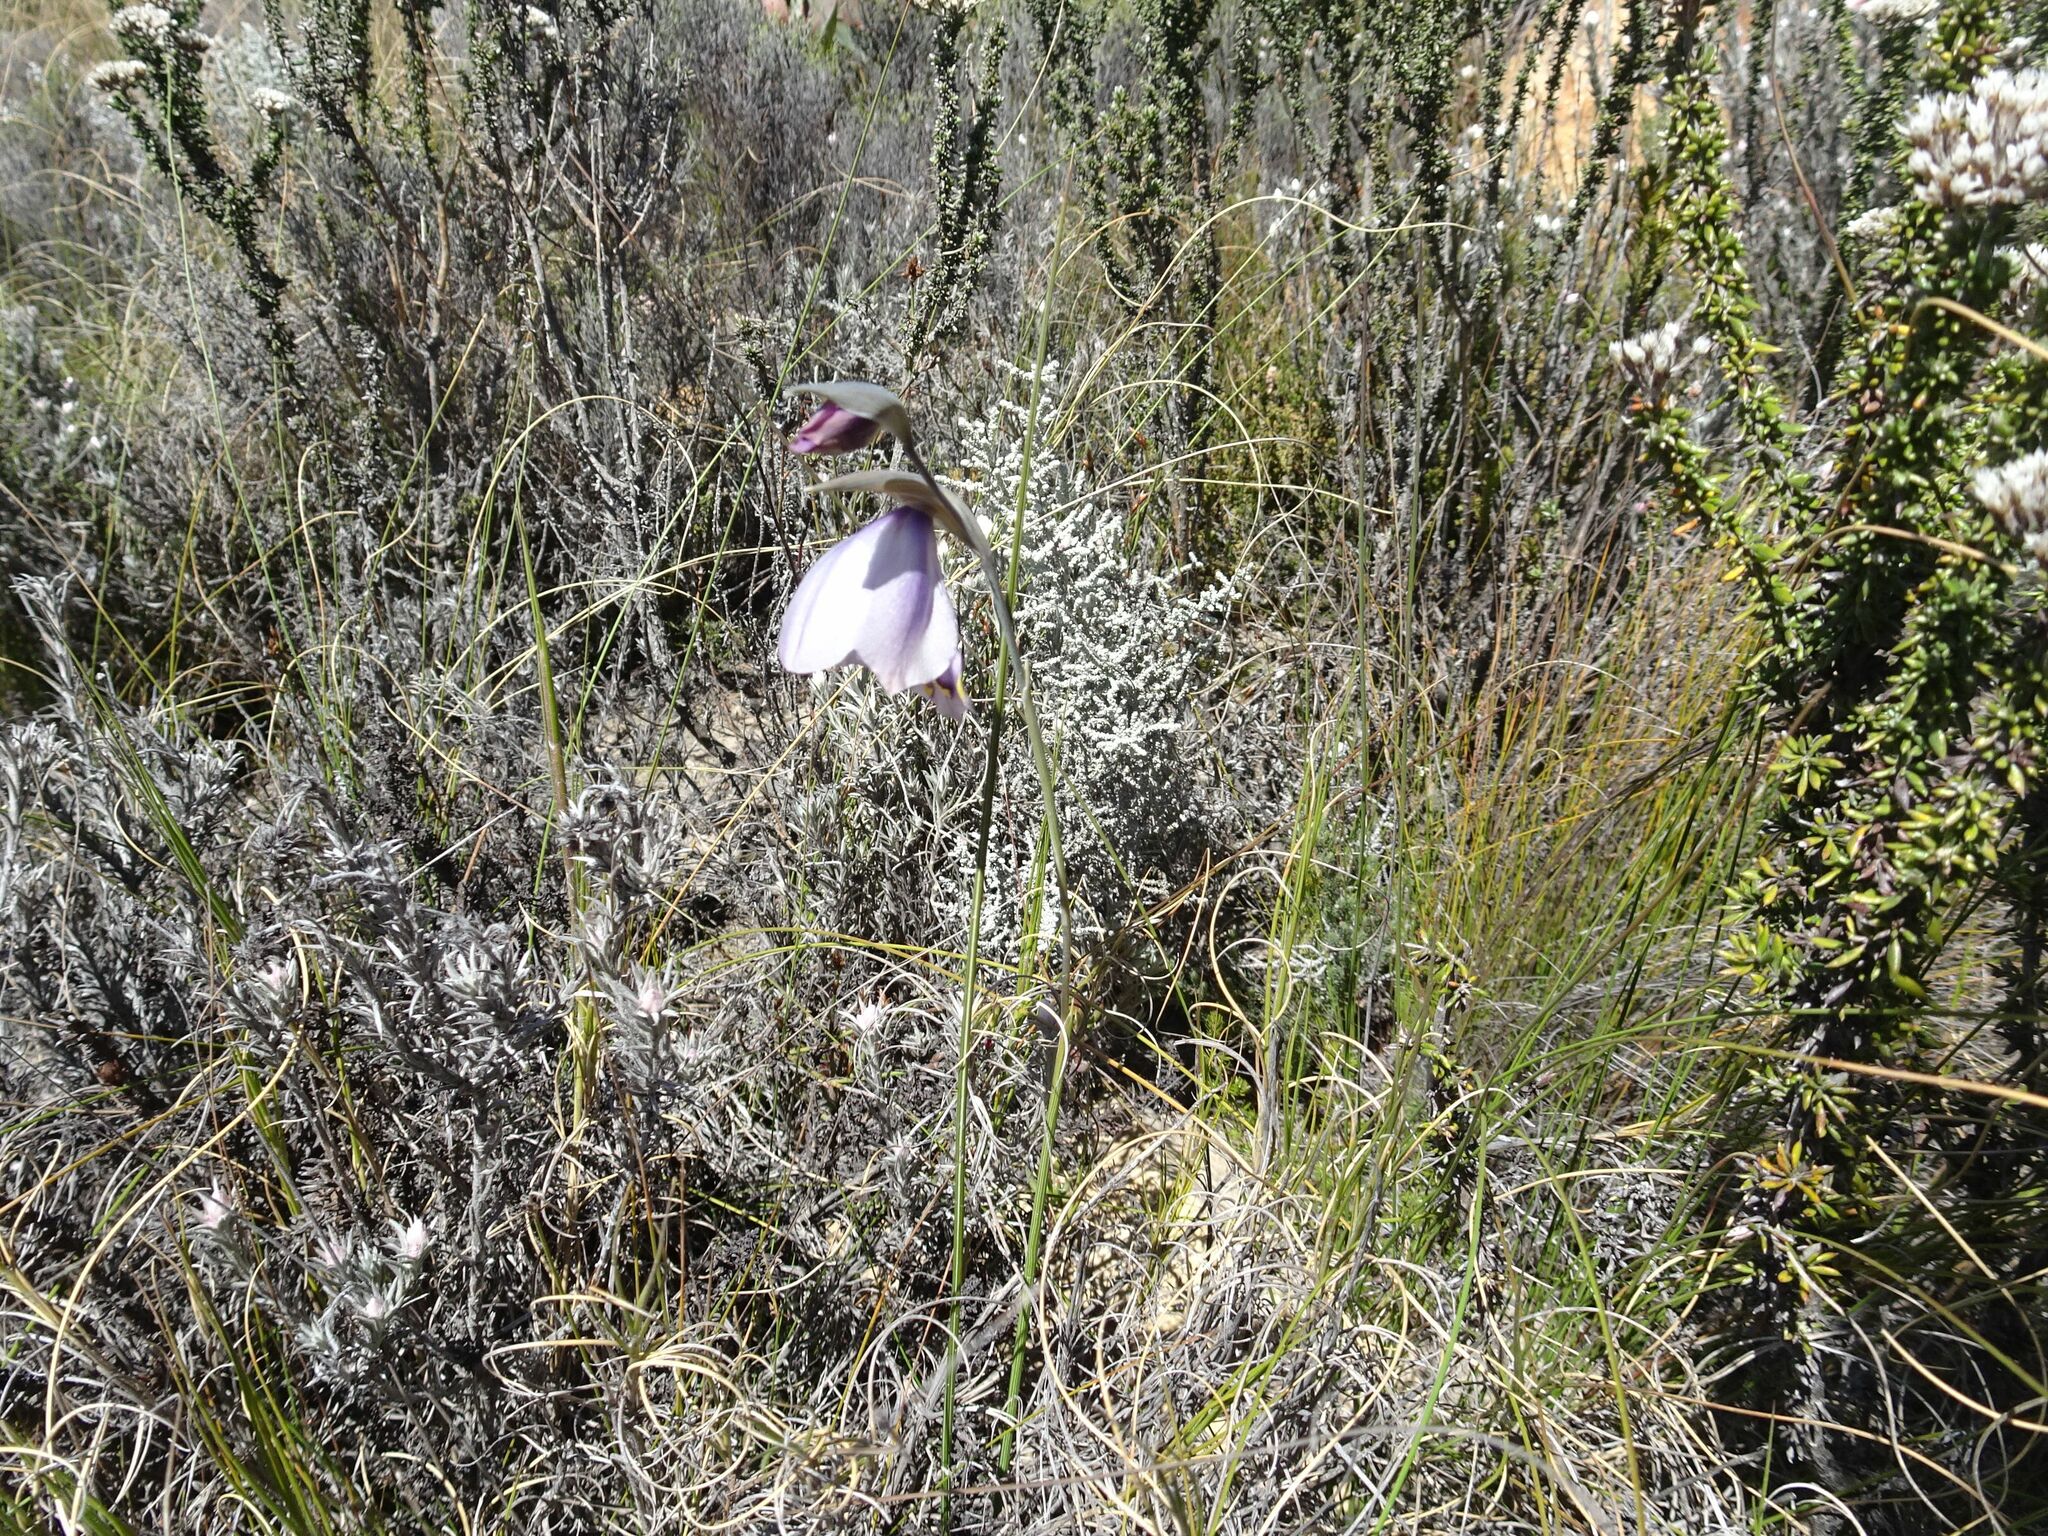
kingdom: Plantae
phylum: Tracheophyta
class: Liliopsida
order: Asparagales
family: Iridaceae
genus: Gladiolus
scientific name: Gladiolus patersoniae
